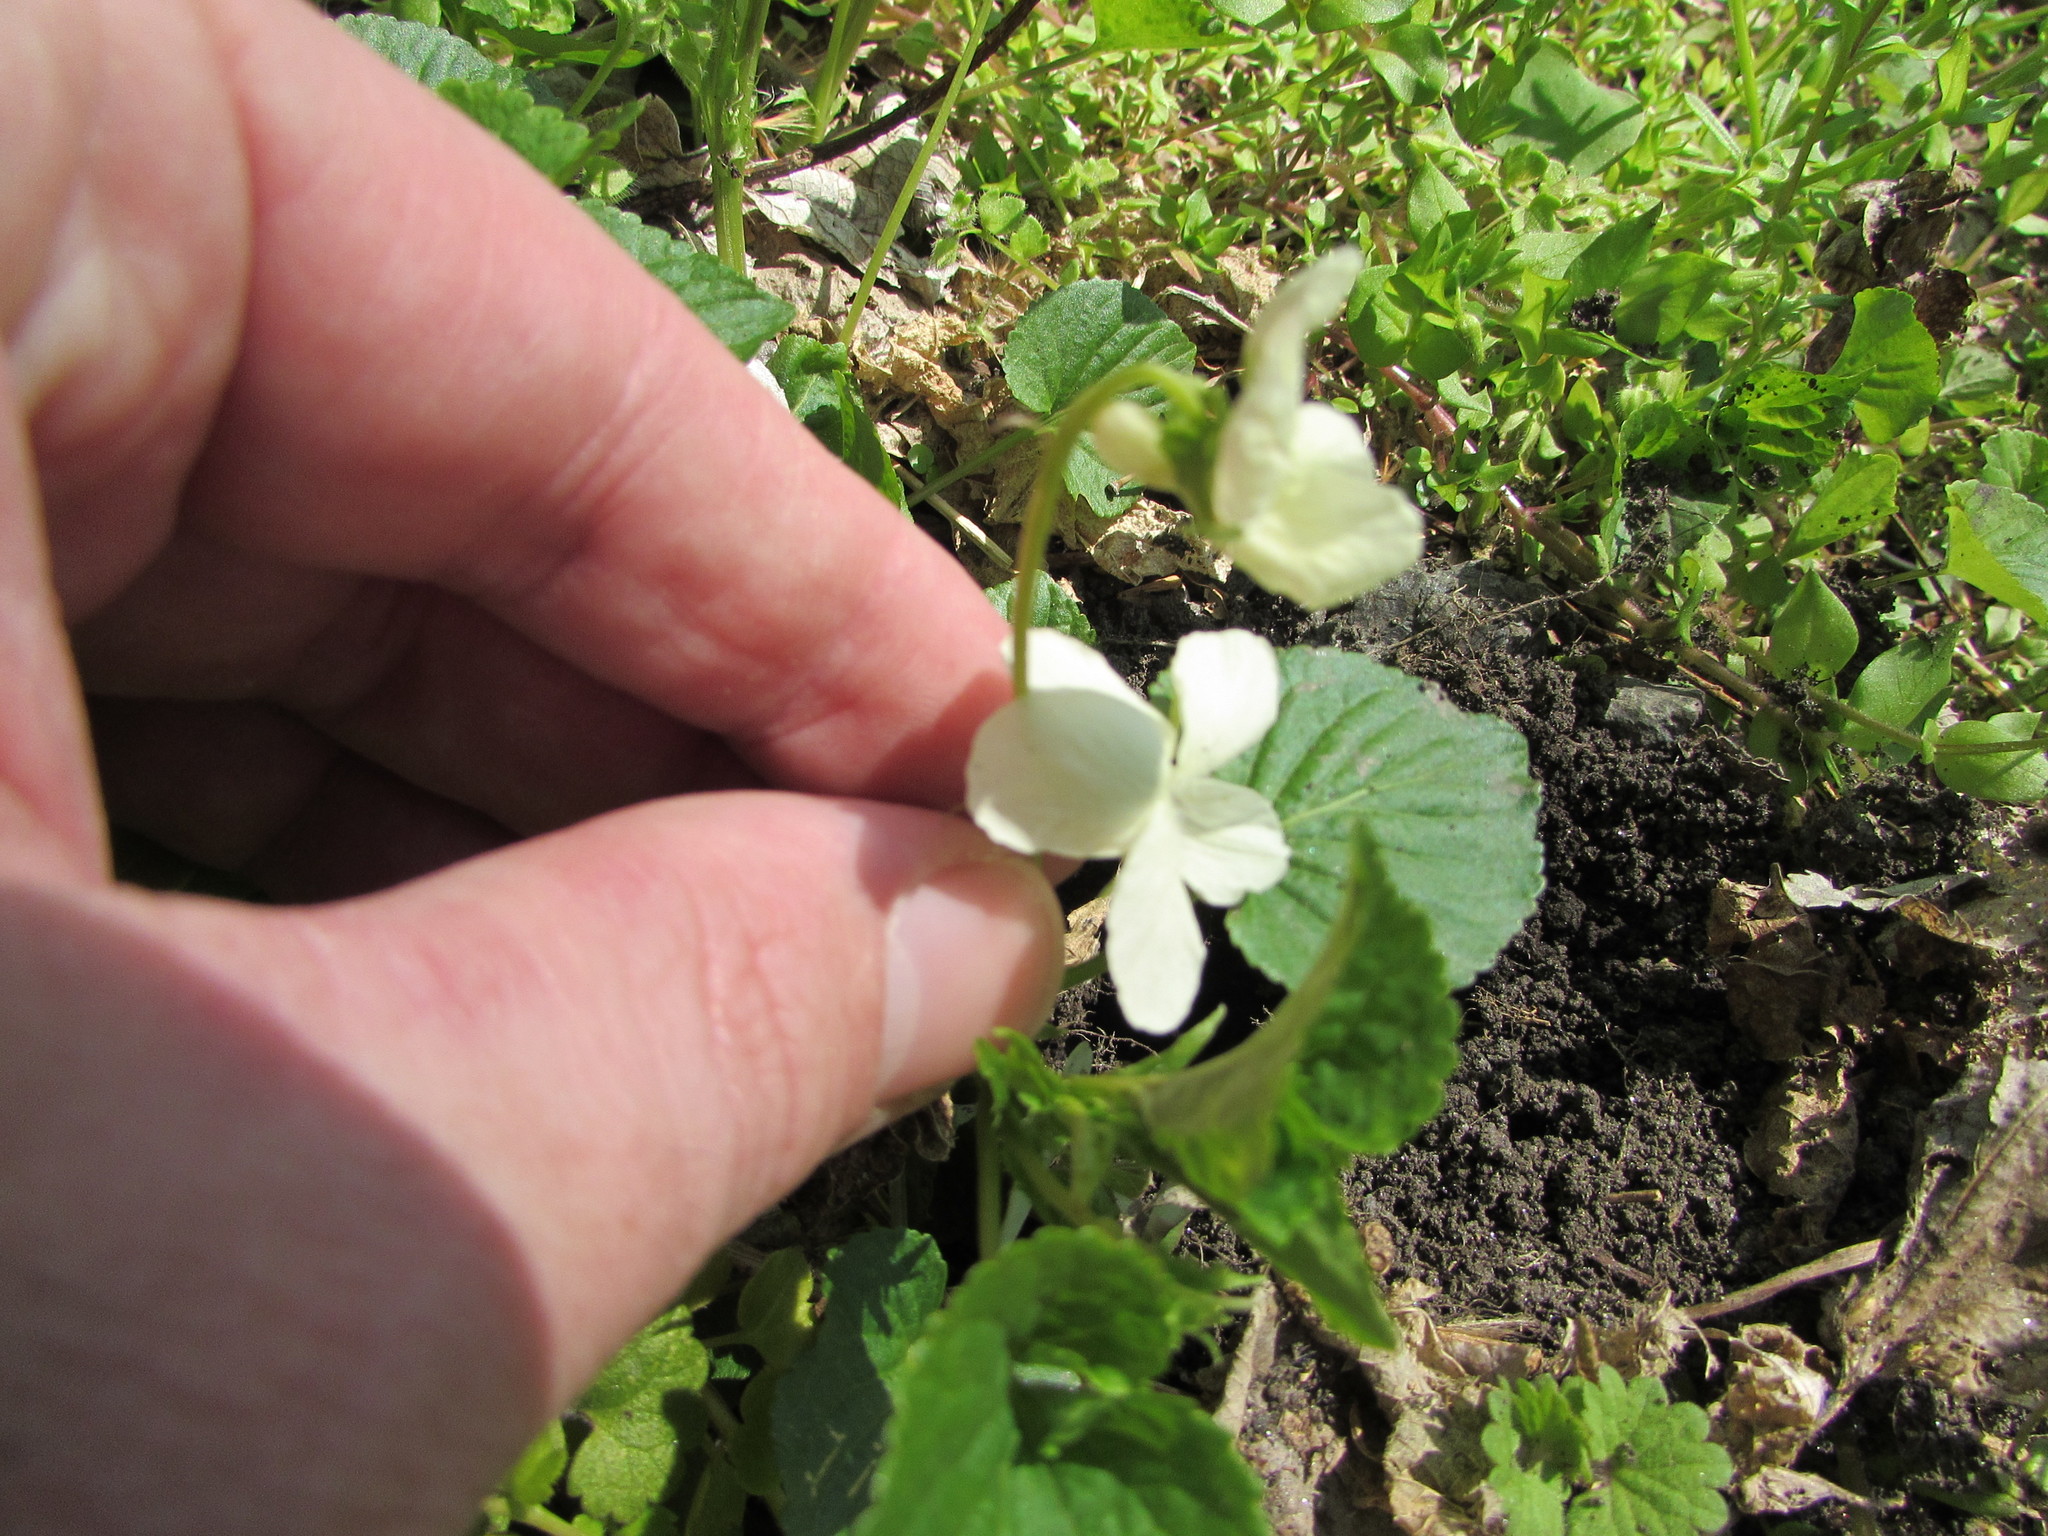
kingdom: Plantae
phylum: Tracheophyta
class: Magnoliopsida
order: Malpighiales
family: Violaceae
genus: Viola
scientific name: Viola striata
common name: Cream violet
